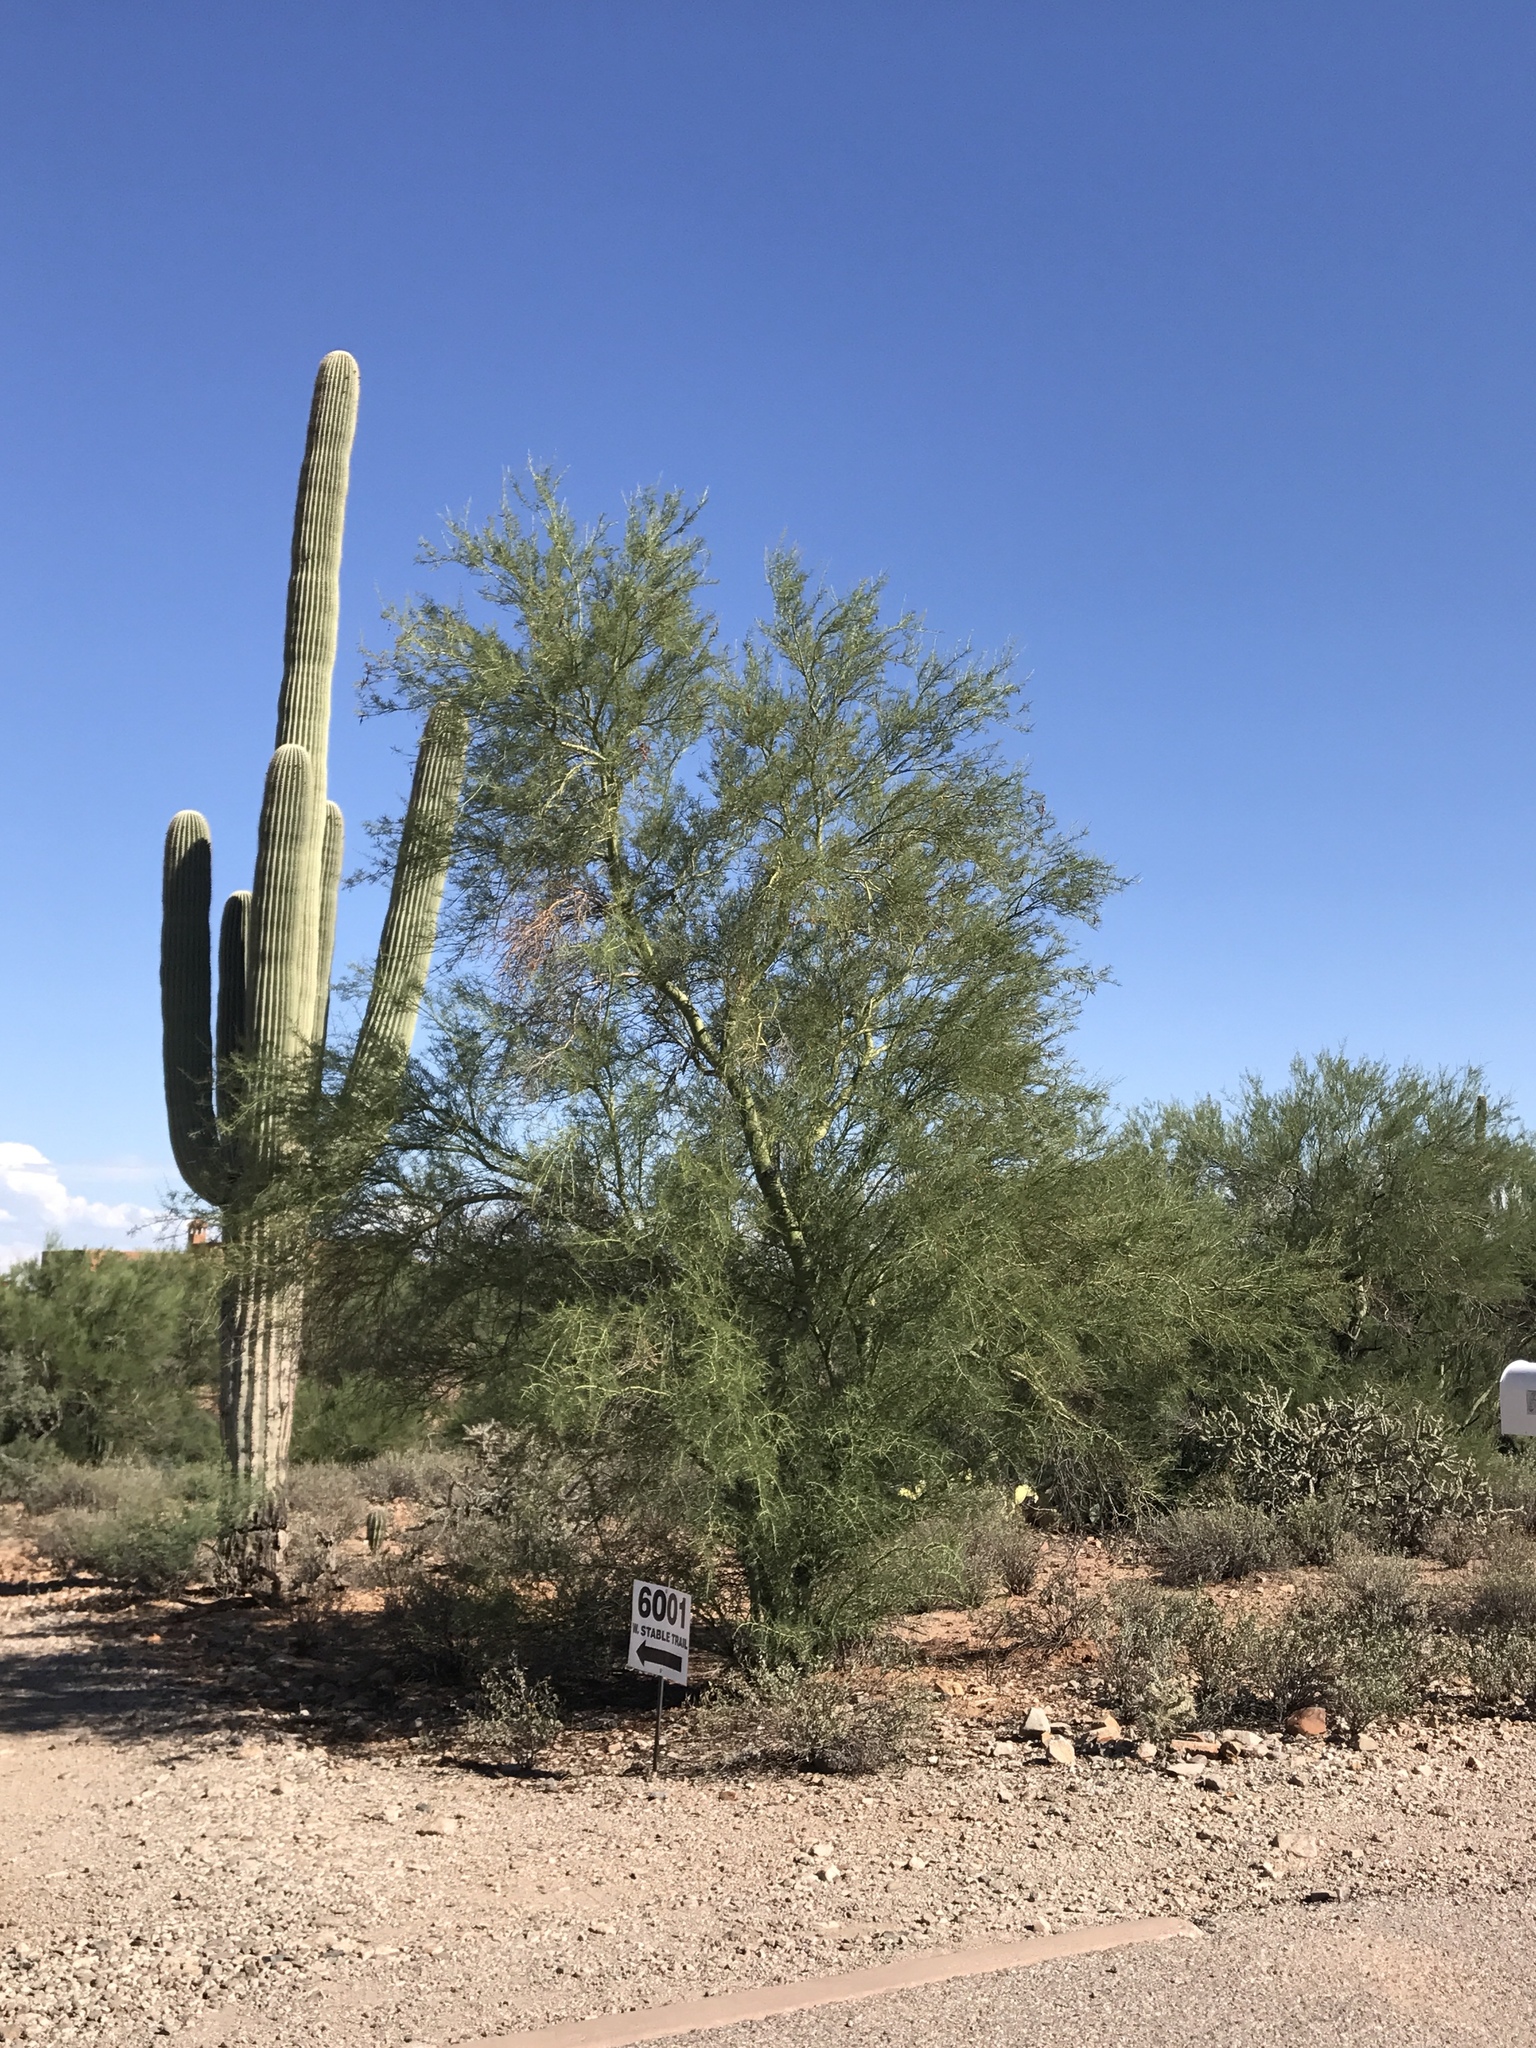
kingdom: Plantae
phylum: Tracheophyta
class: Magnoliopsida
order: Fabales
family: Fabaceae
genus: Parkinsonia
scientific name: Parkinsonia microphylla
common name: Yellow paloverde
